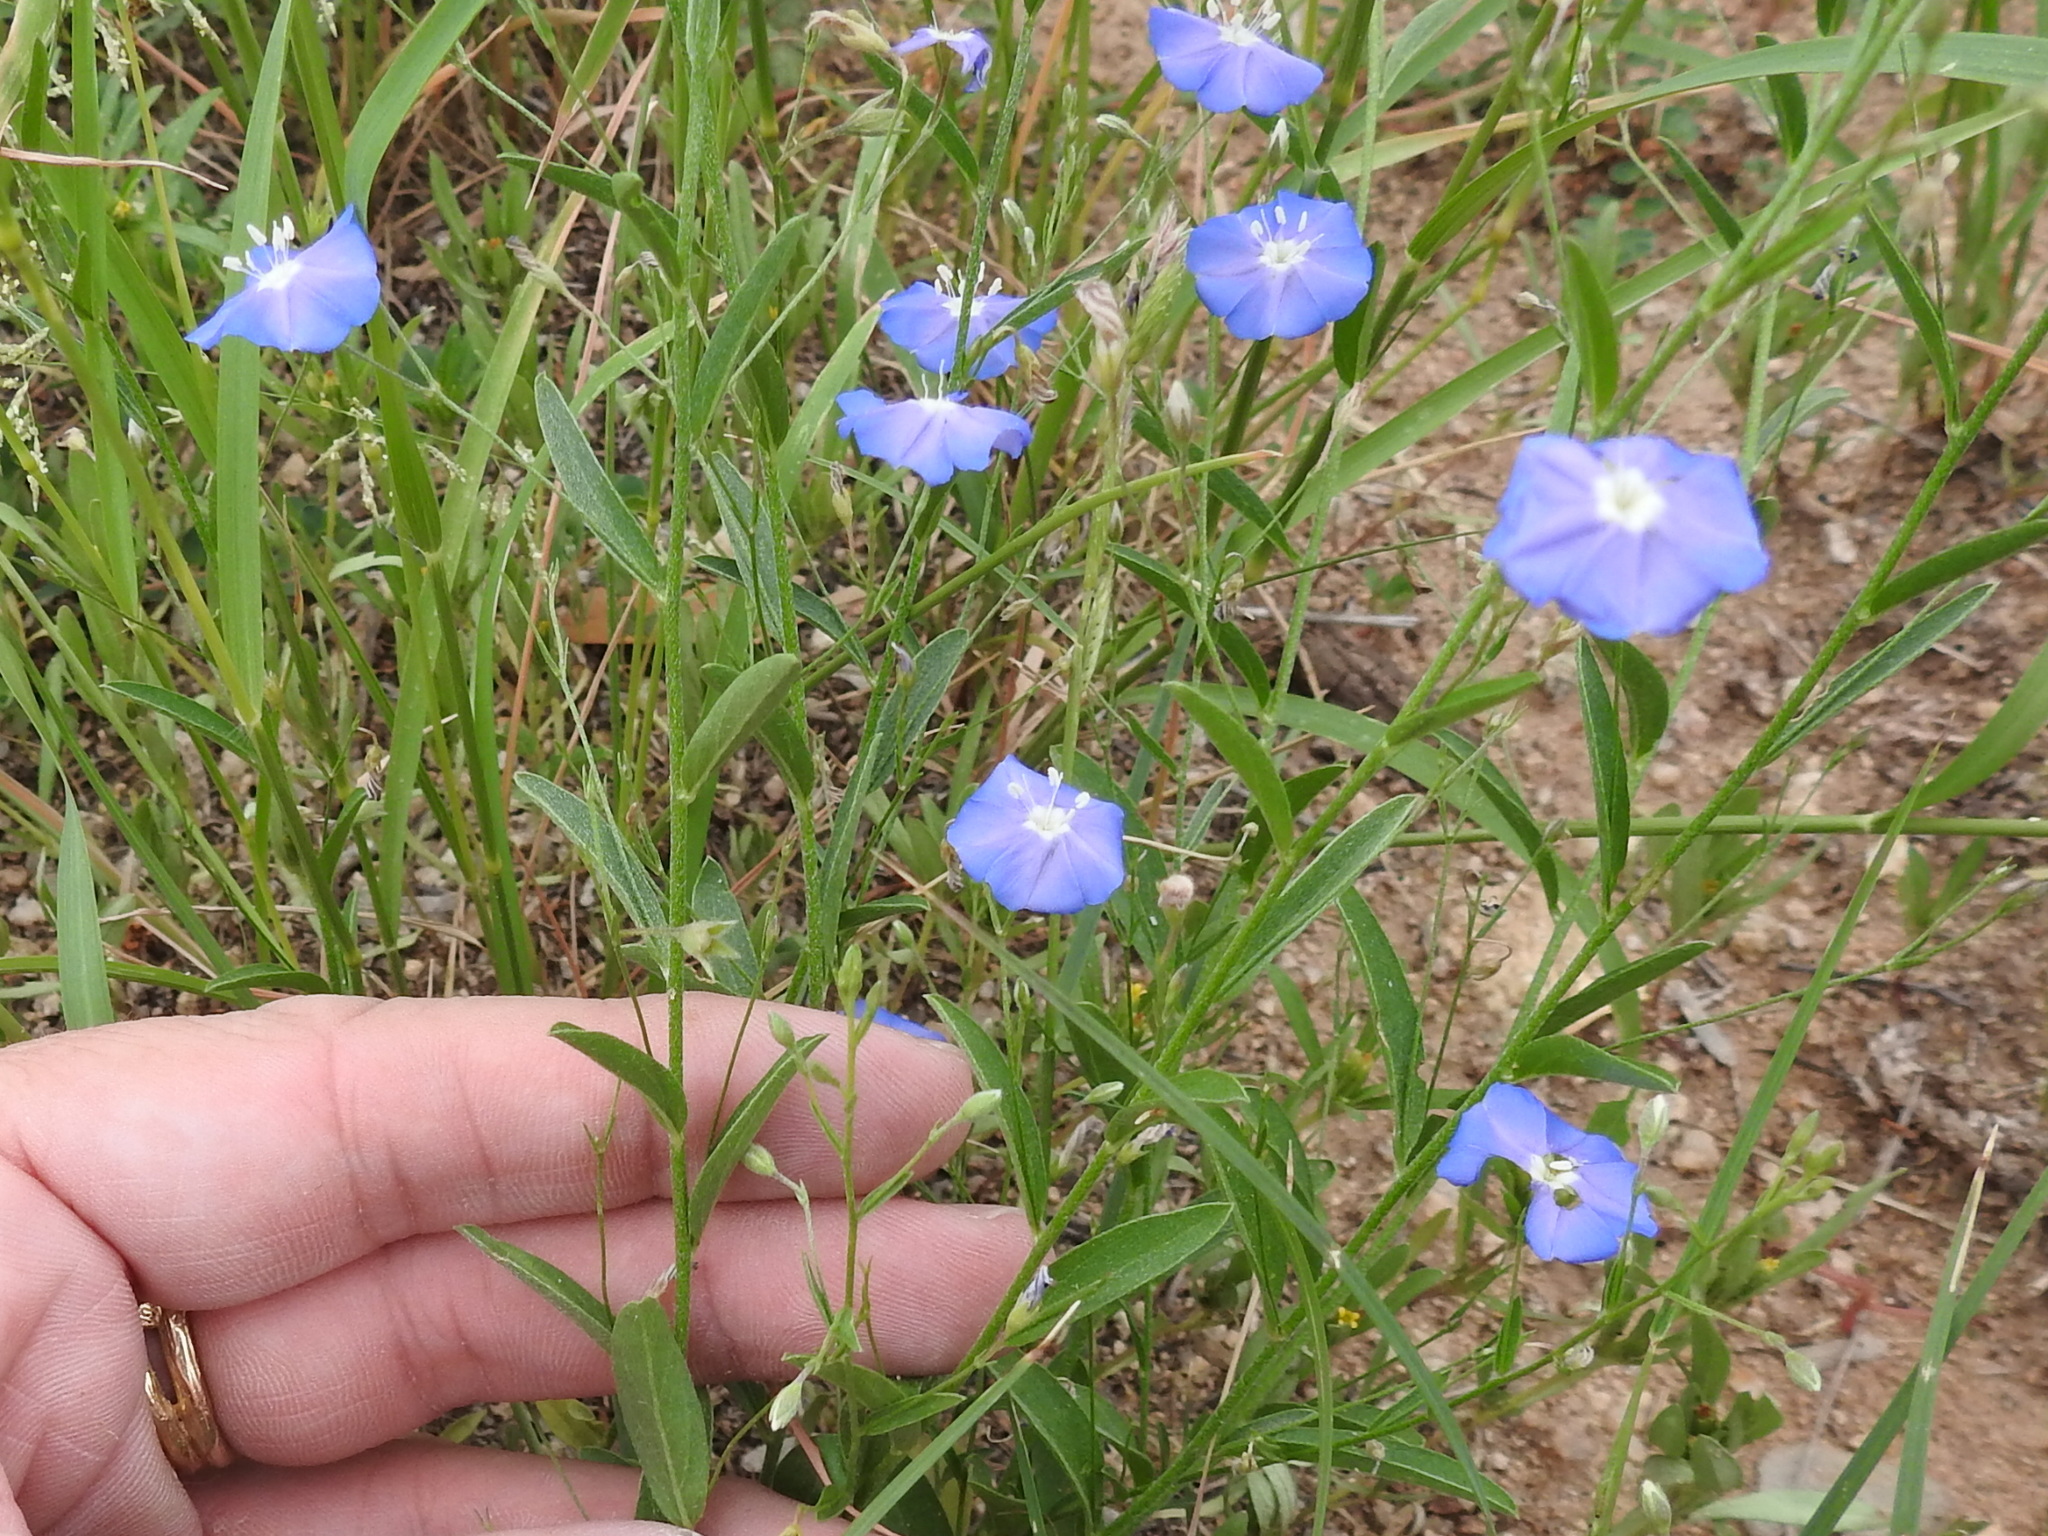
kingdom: Plantae
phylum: Tracheophyta
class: Magnoliopsida
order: Solanales
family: Convolvulaceae
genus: Evolvulus
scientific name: Evolvulus arizonicus
